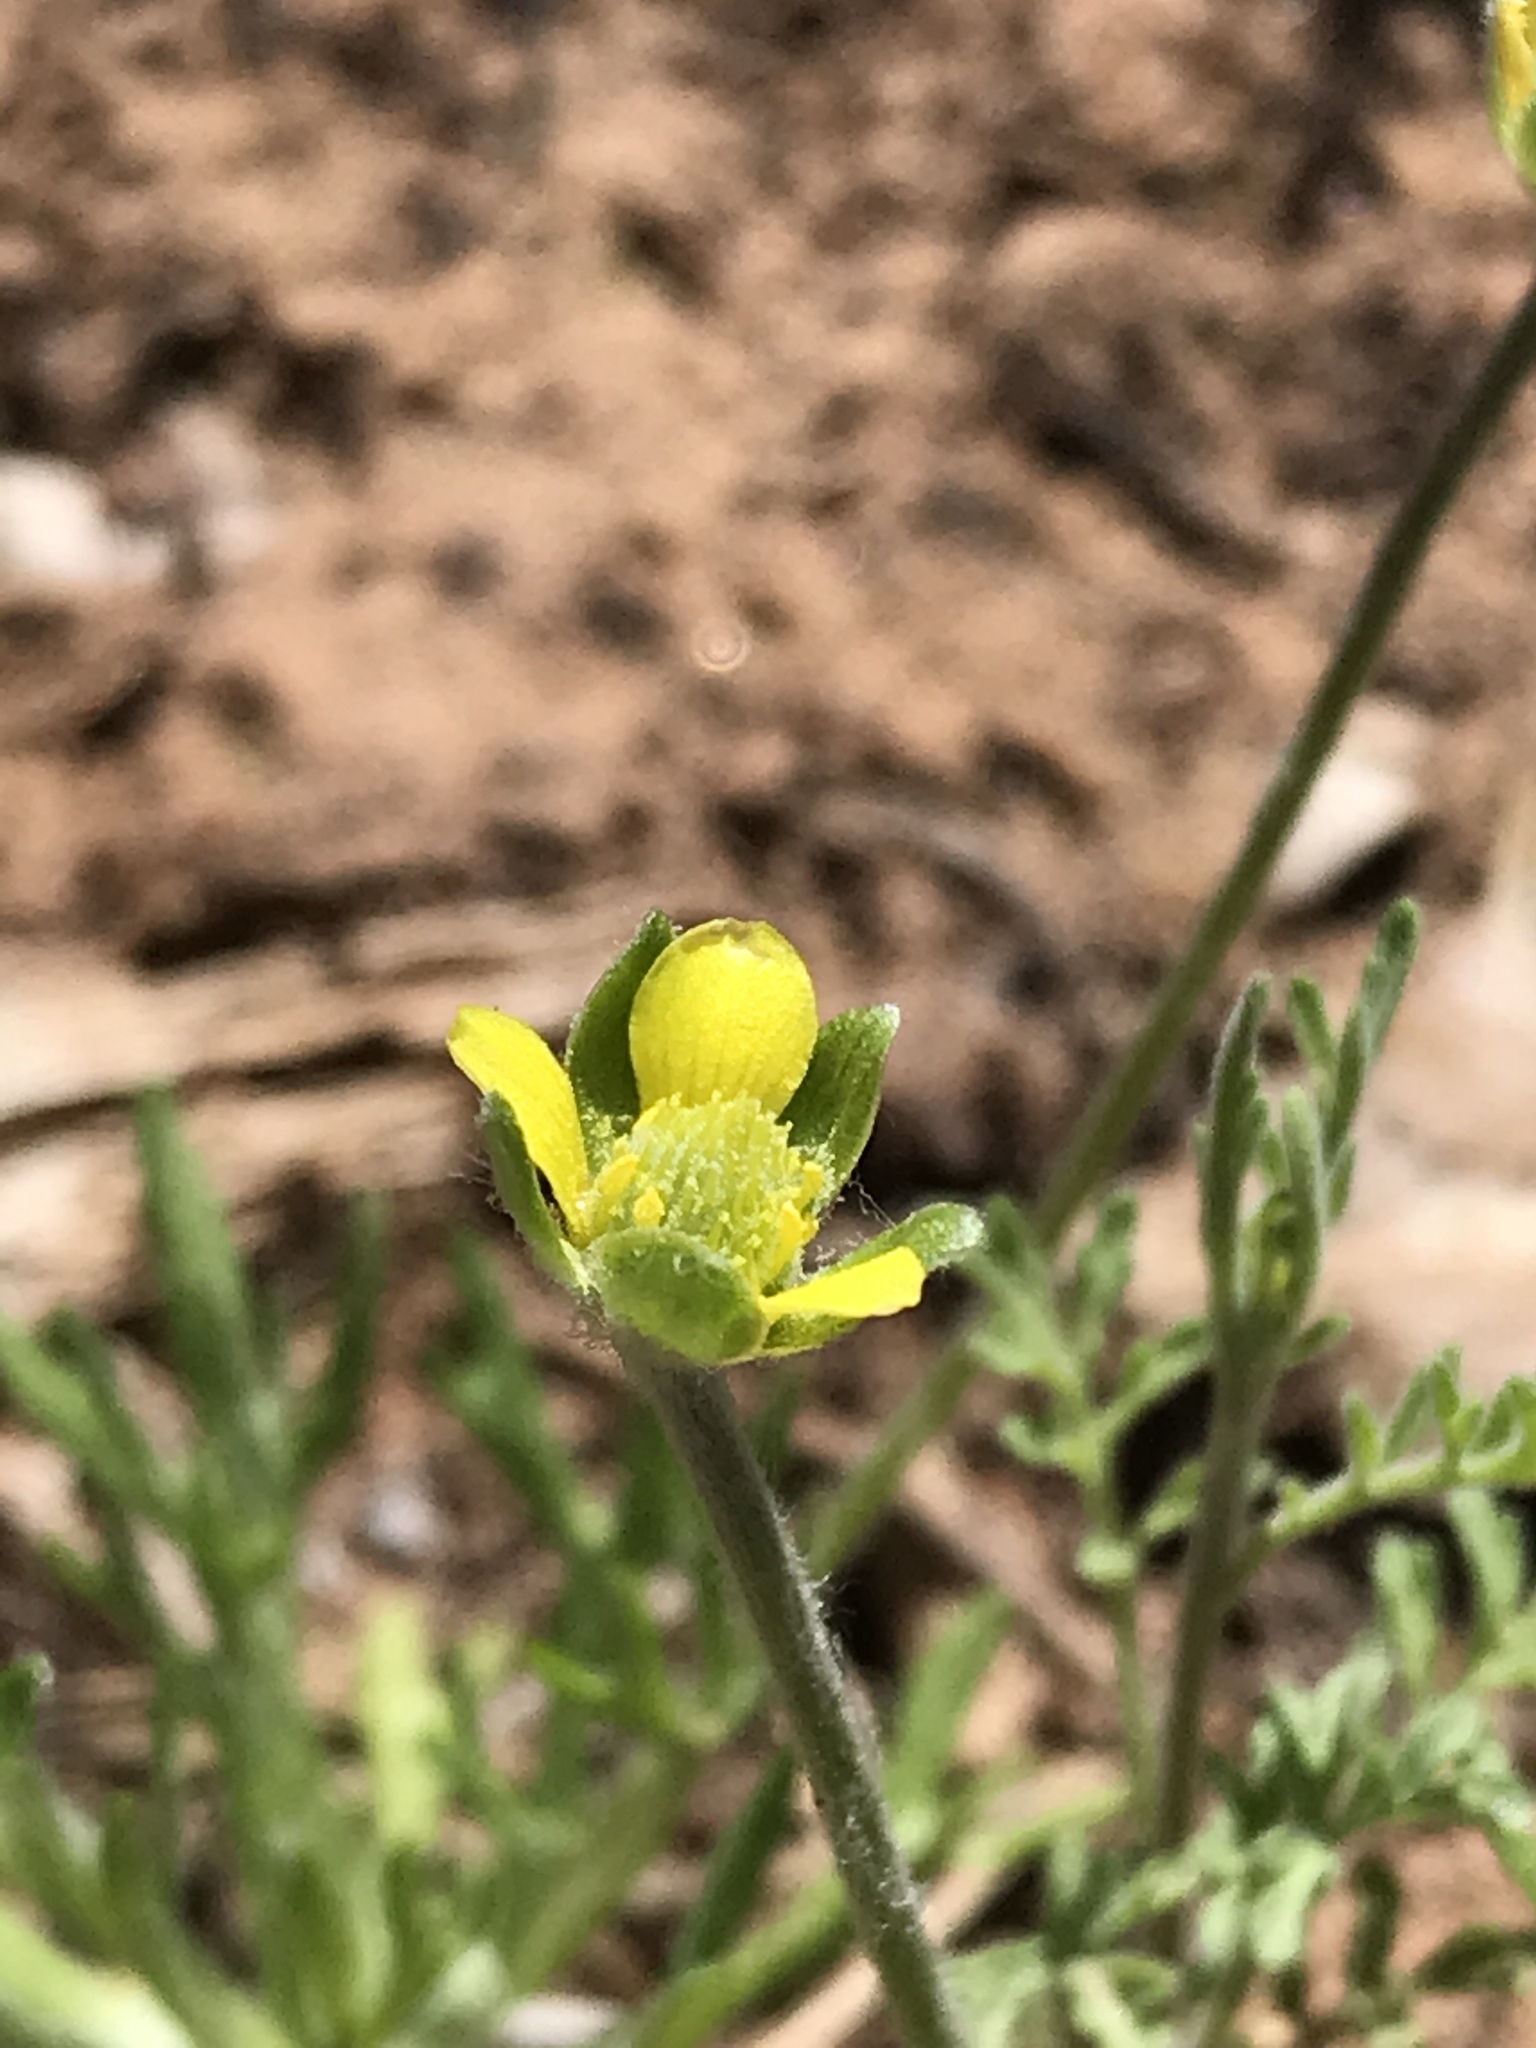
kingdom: Plantae
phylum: Tracheophyta
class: Magnoliopsida
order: Ranunculales
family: Ranunculaceae
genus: Ceratocephala
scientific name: Ceratocephala orthoceras
